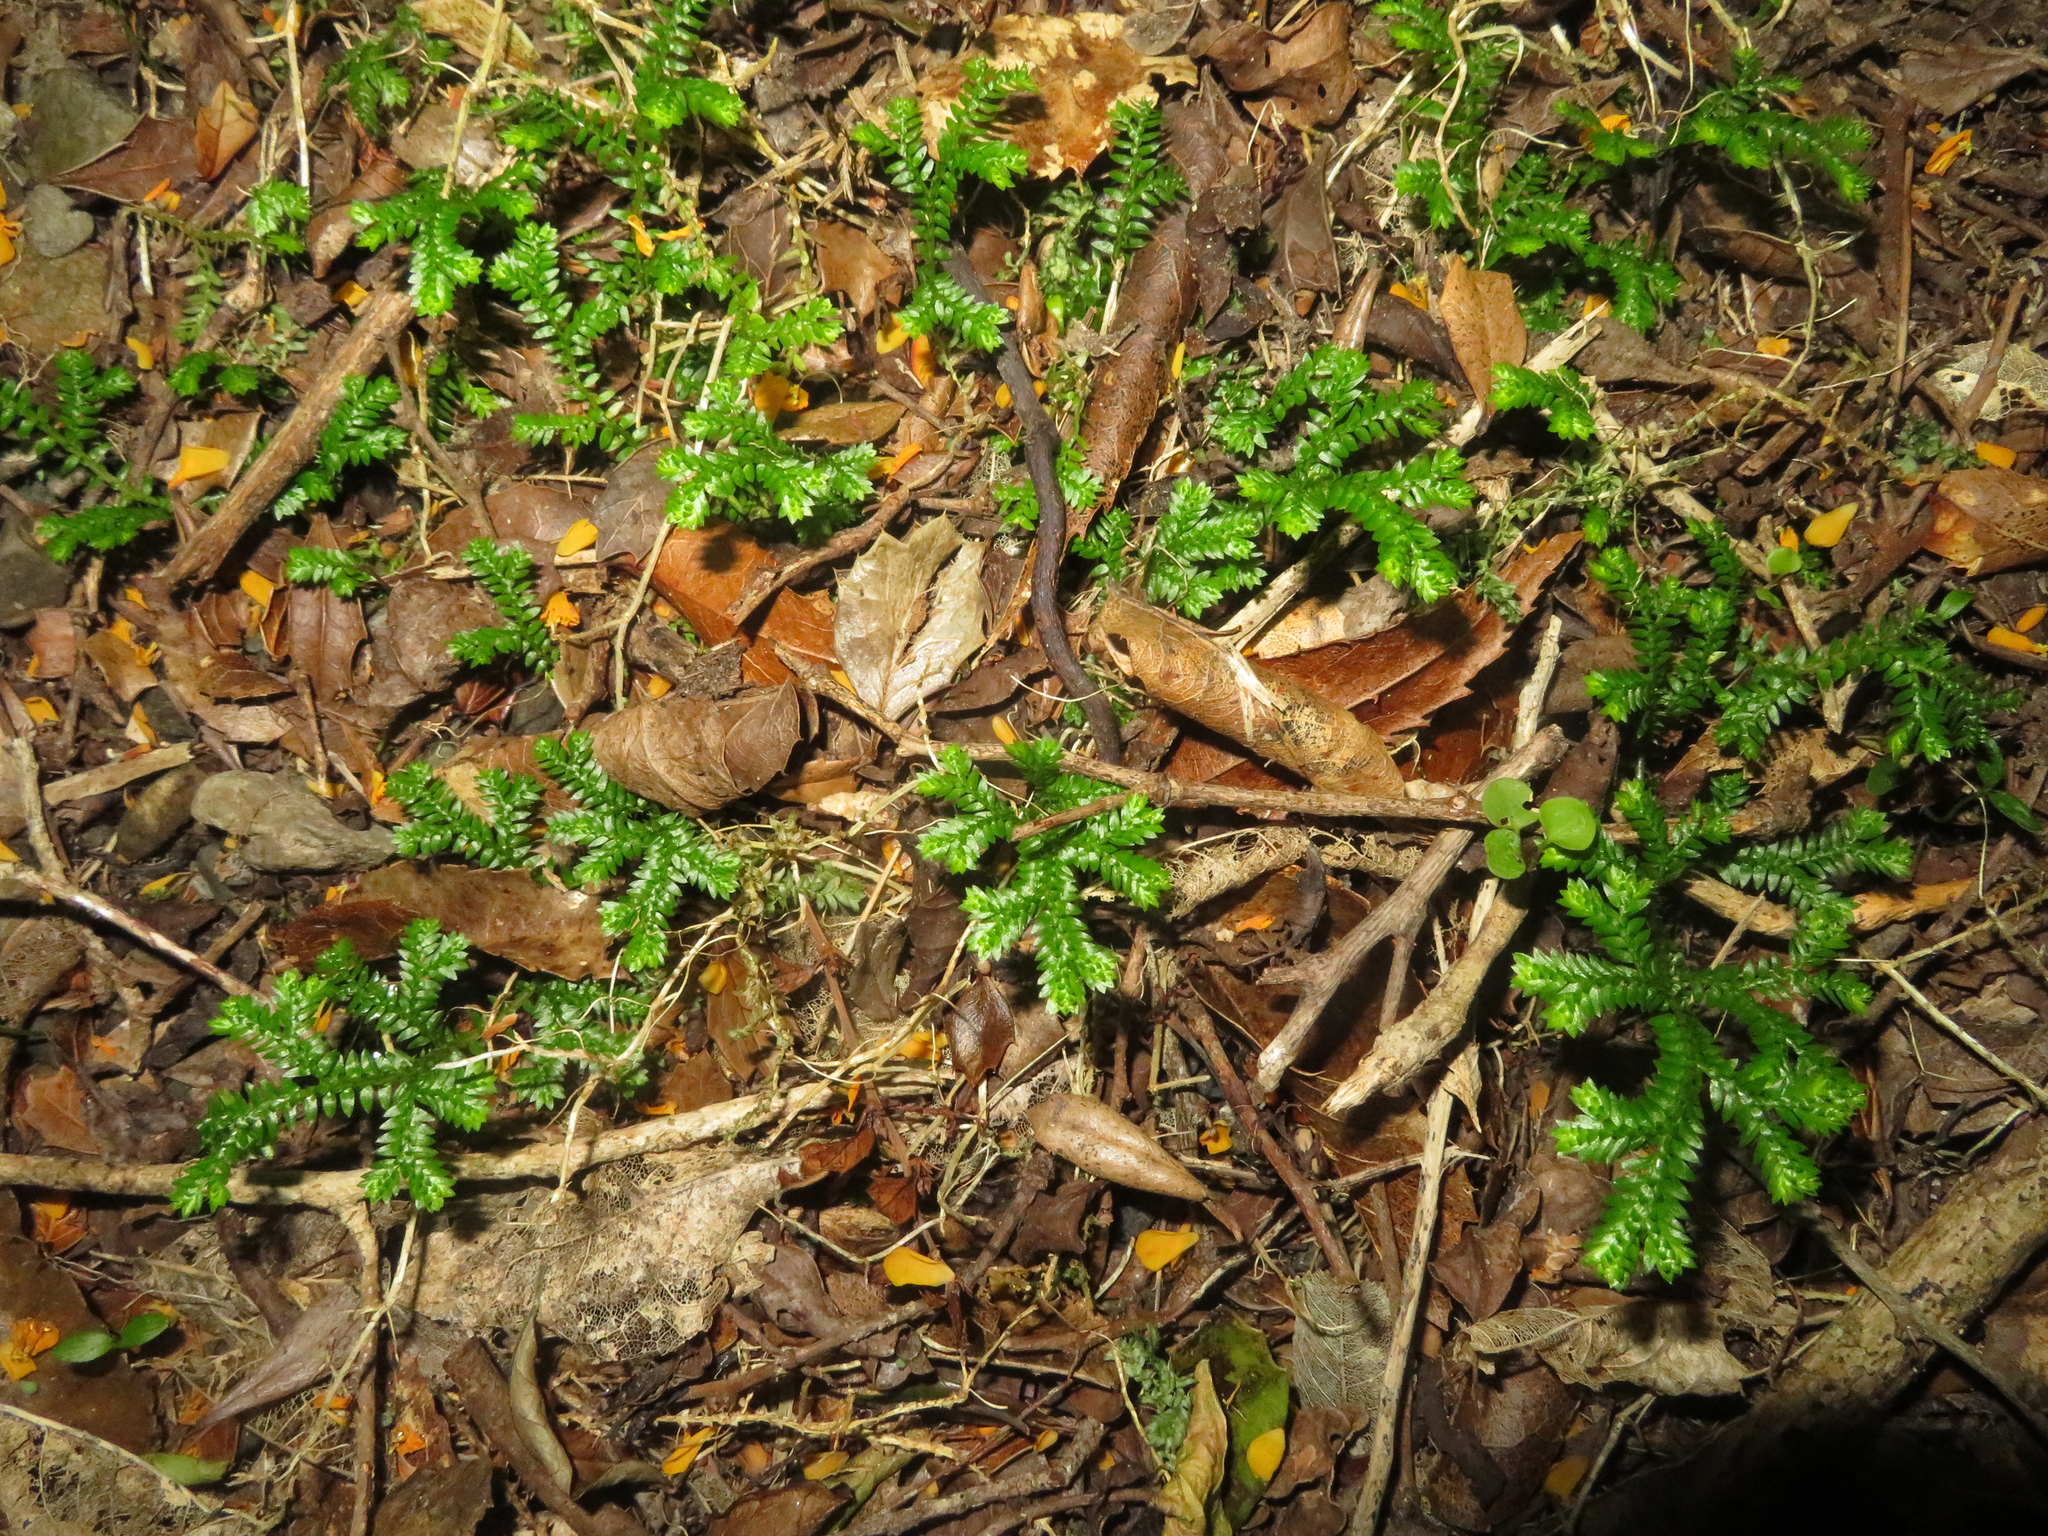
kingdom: Plantae
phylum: Tracheophyta
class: Lycopodiopsida
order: Selaginellales
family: Selaginellaceae
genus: Selaginella
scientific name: Selaginella kraussiana
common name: Krauss' spikemoss
